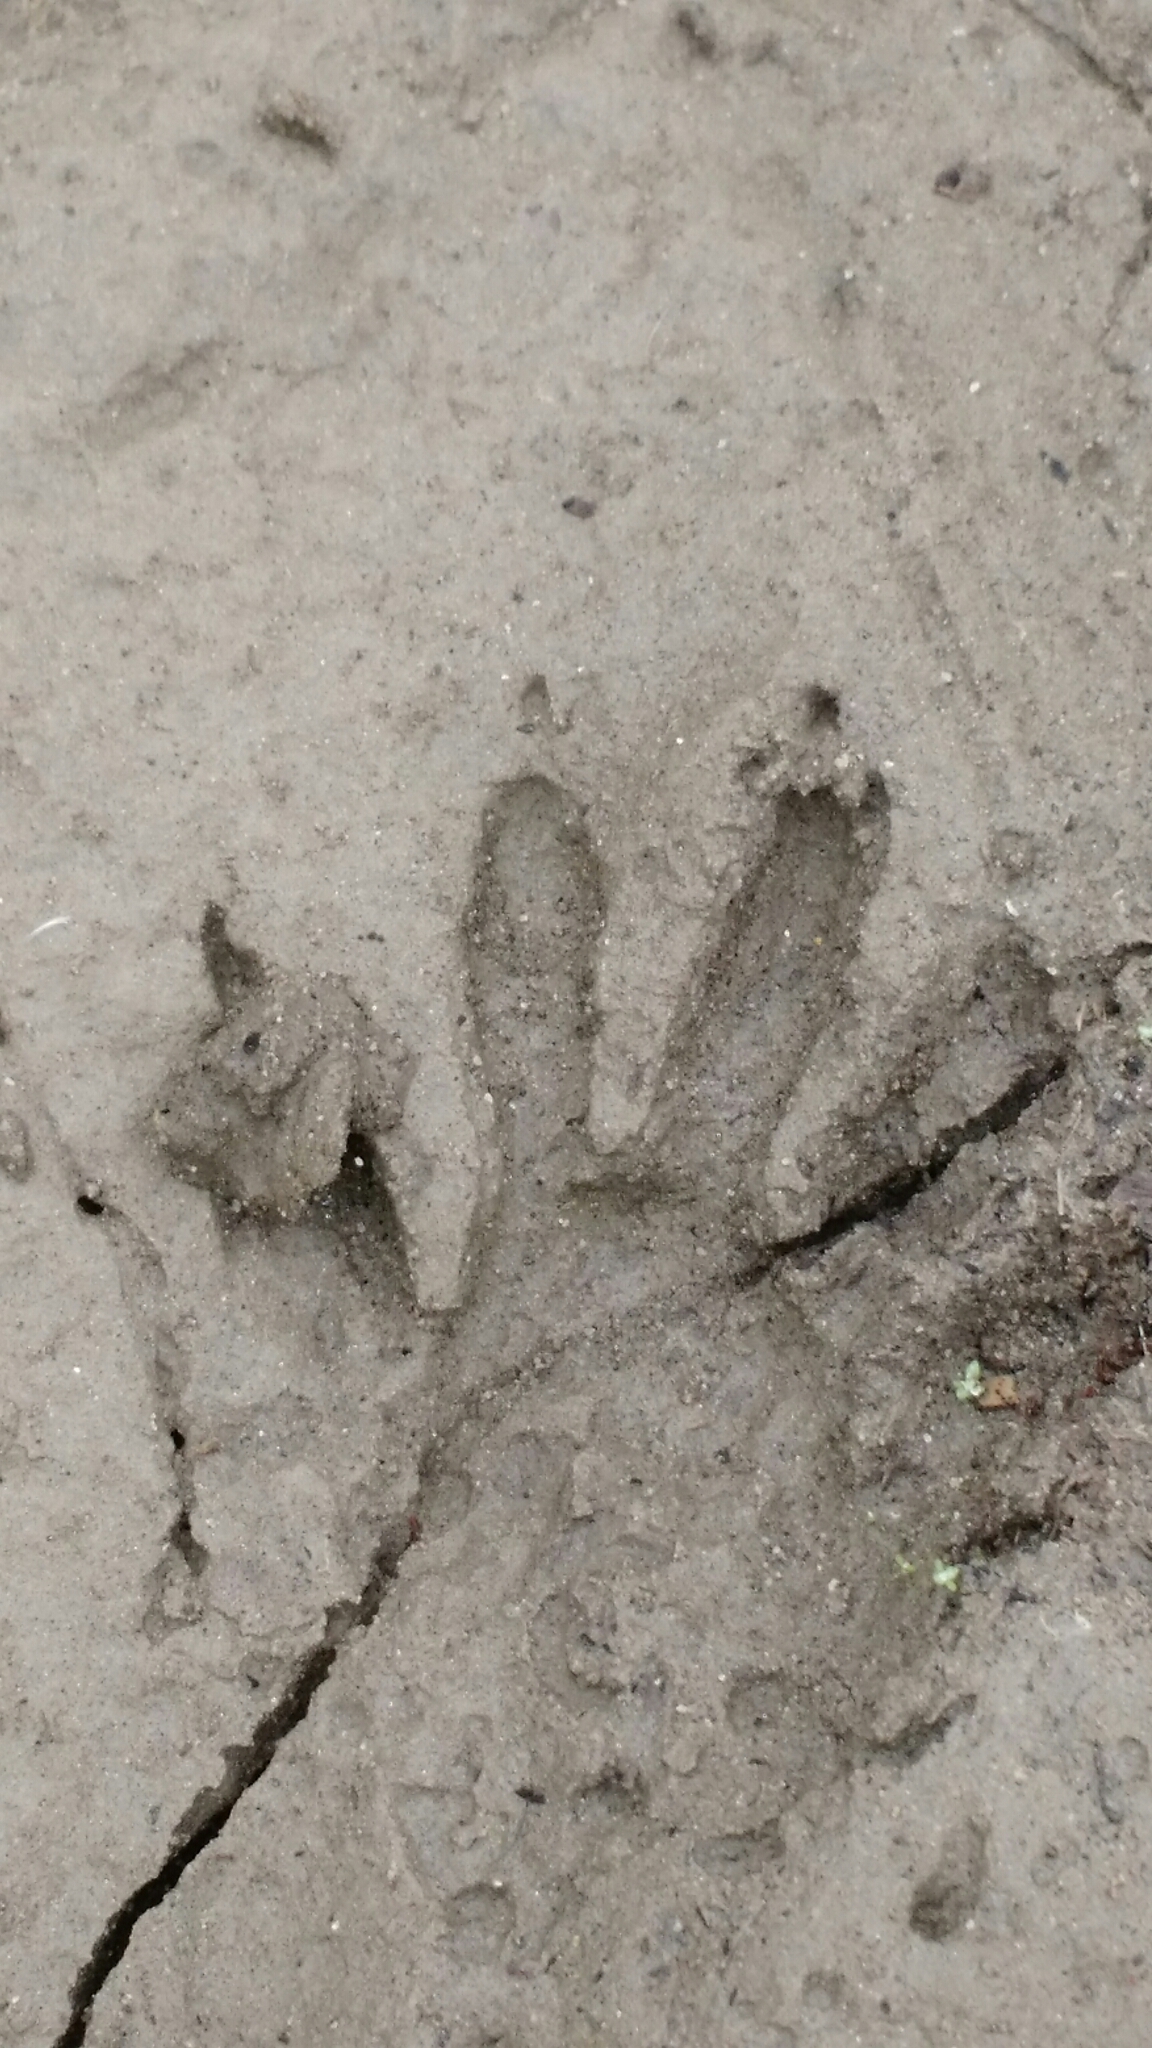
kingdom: Animalia
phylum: Chordata
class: Mammalia
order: Carnivora
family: Procyonidae
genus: Procyon
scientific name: Procyon lotor
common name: Raccoon
